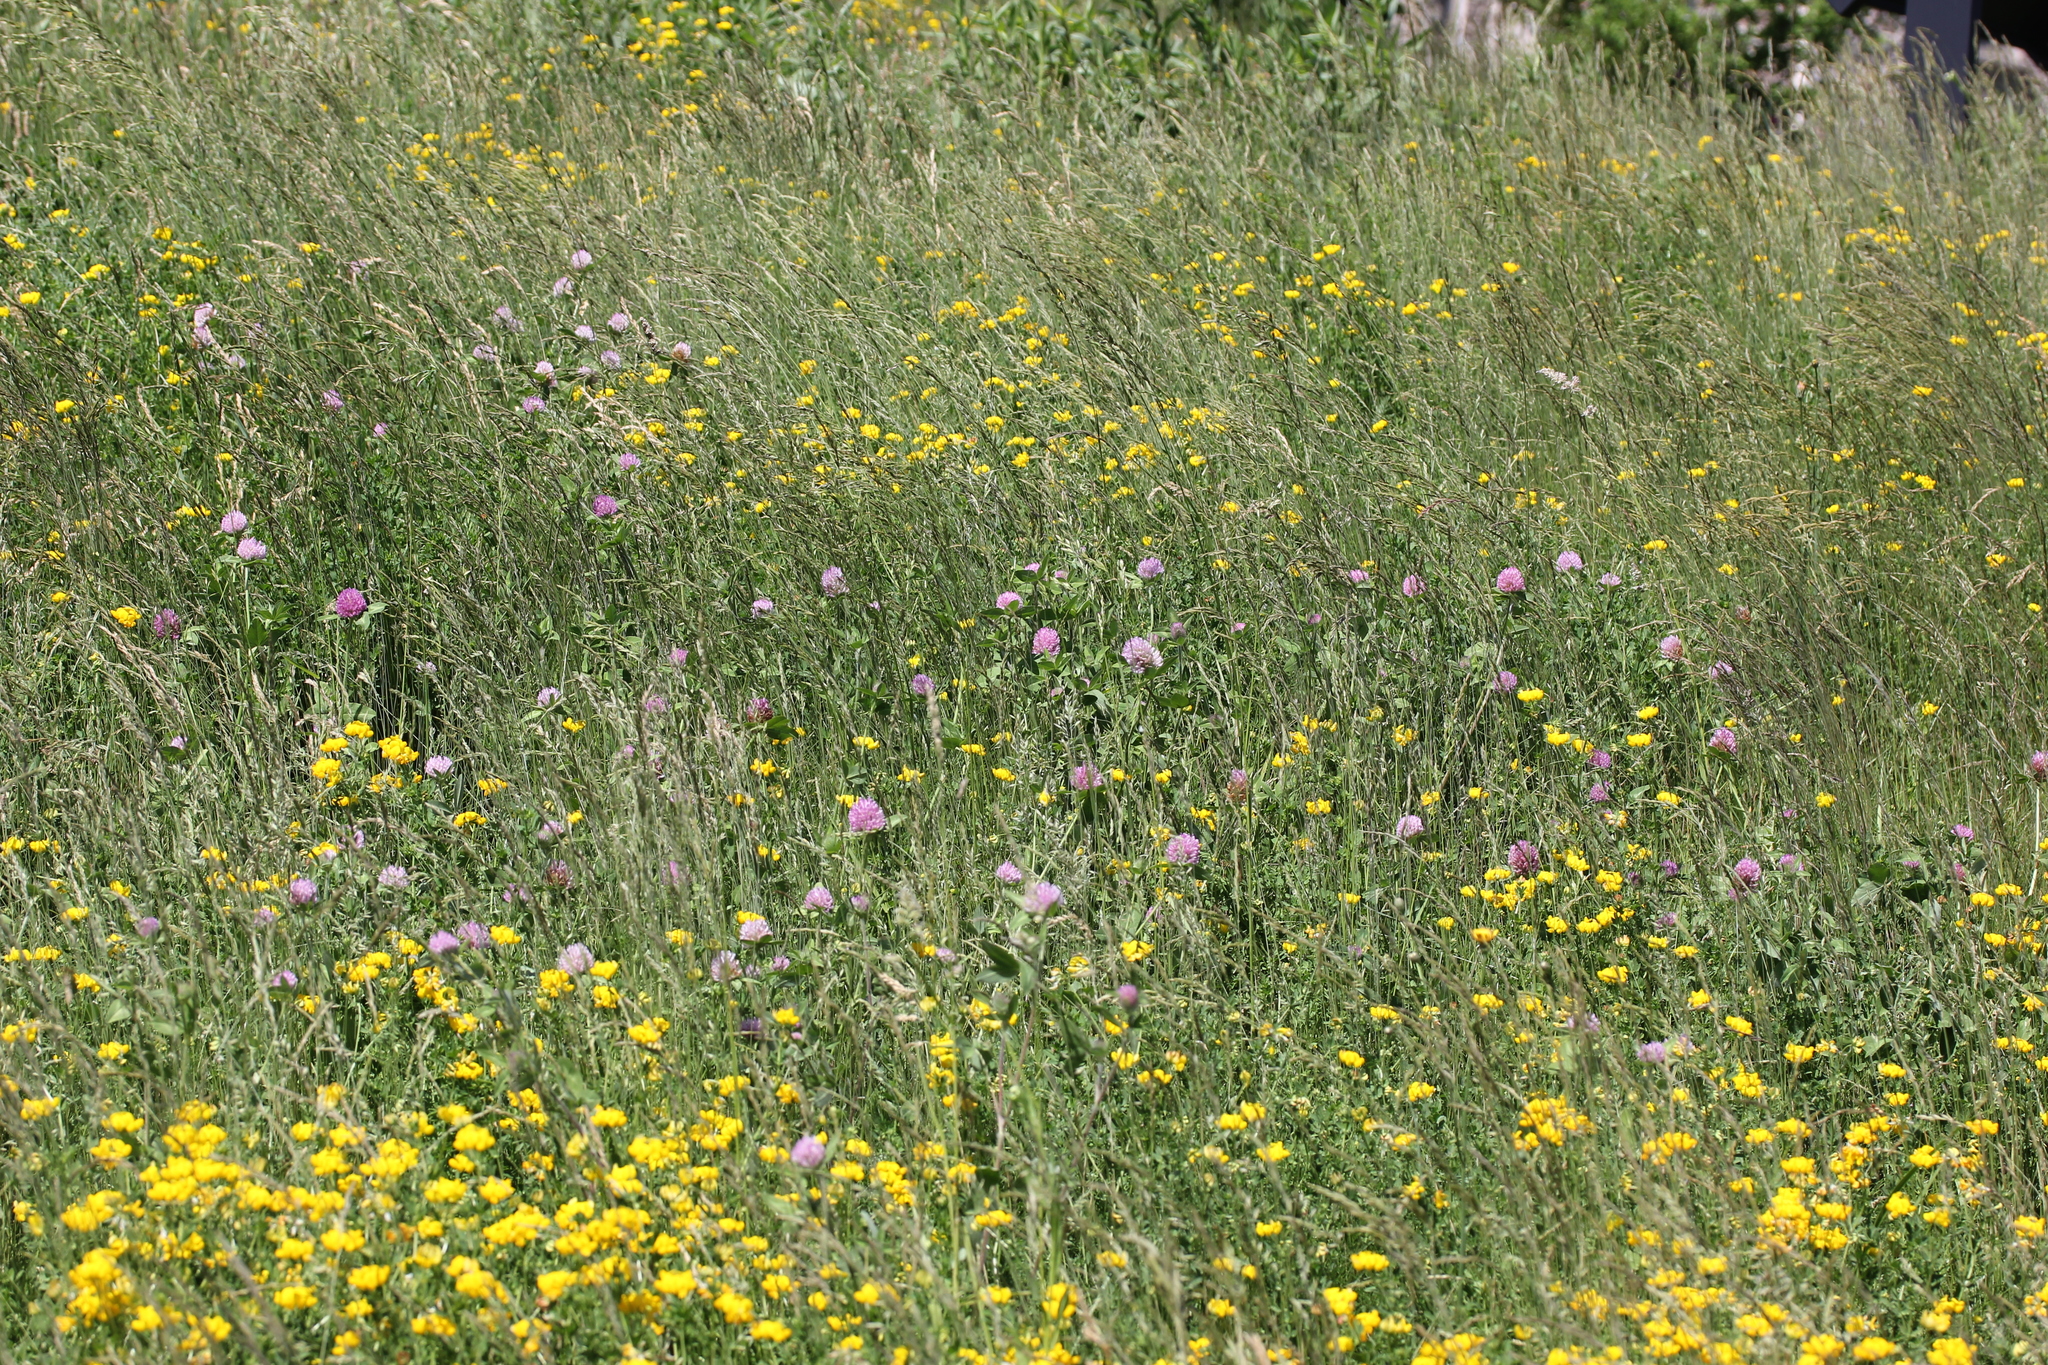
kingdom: Plantae
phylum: Tracheophyta
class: Magnoliopsida
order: Fabales
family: Fabaceae
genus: Trifolium
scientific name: Trifolium pratense
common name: Red clover
